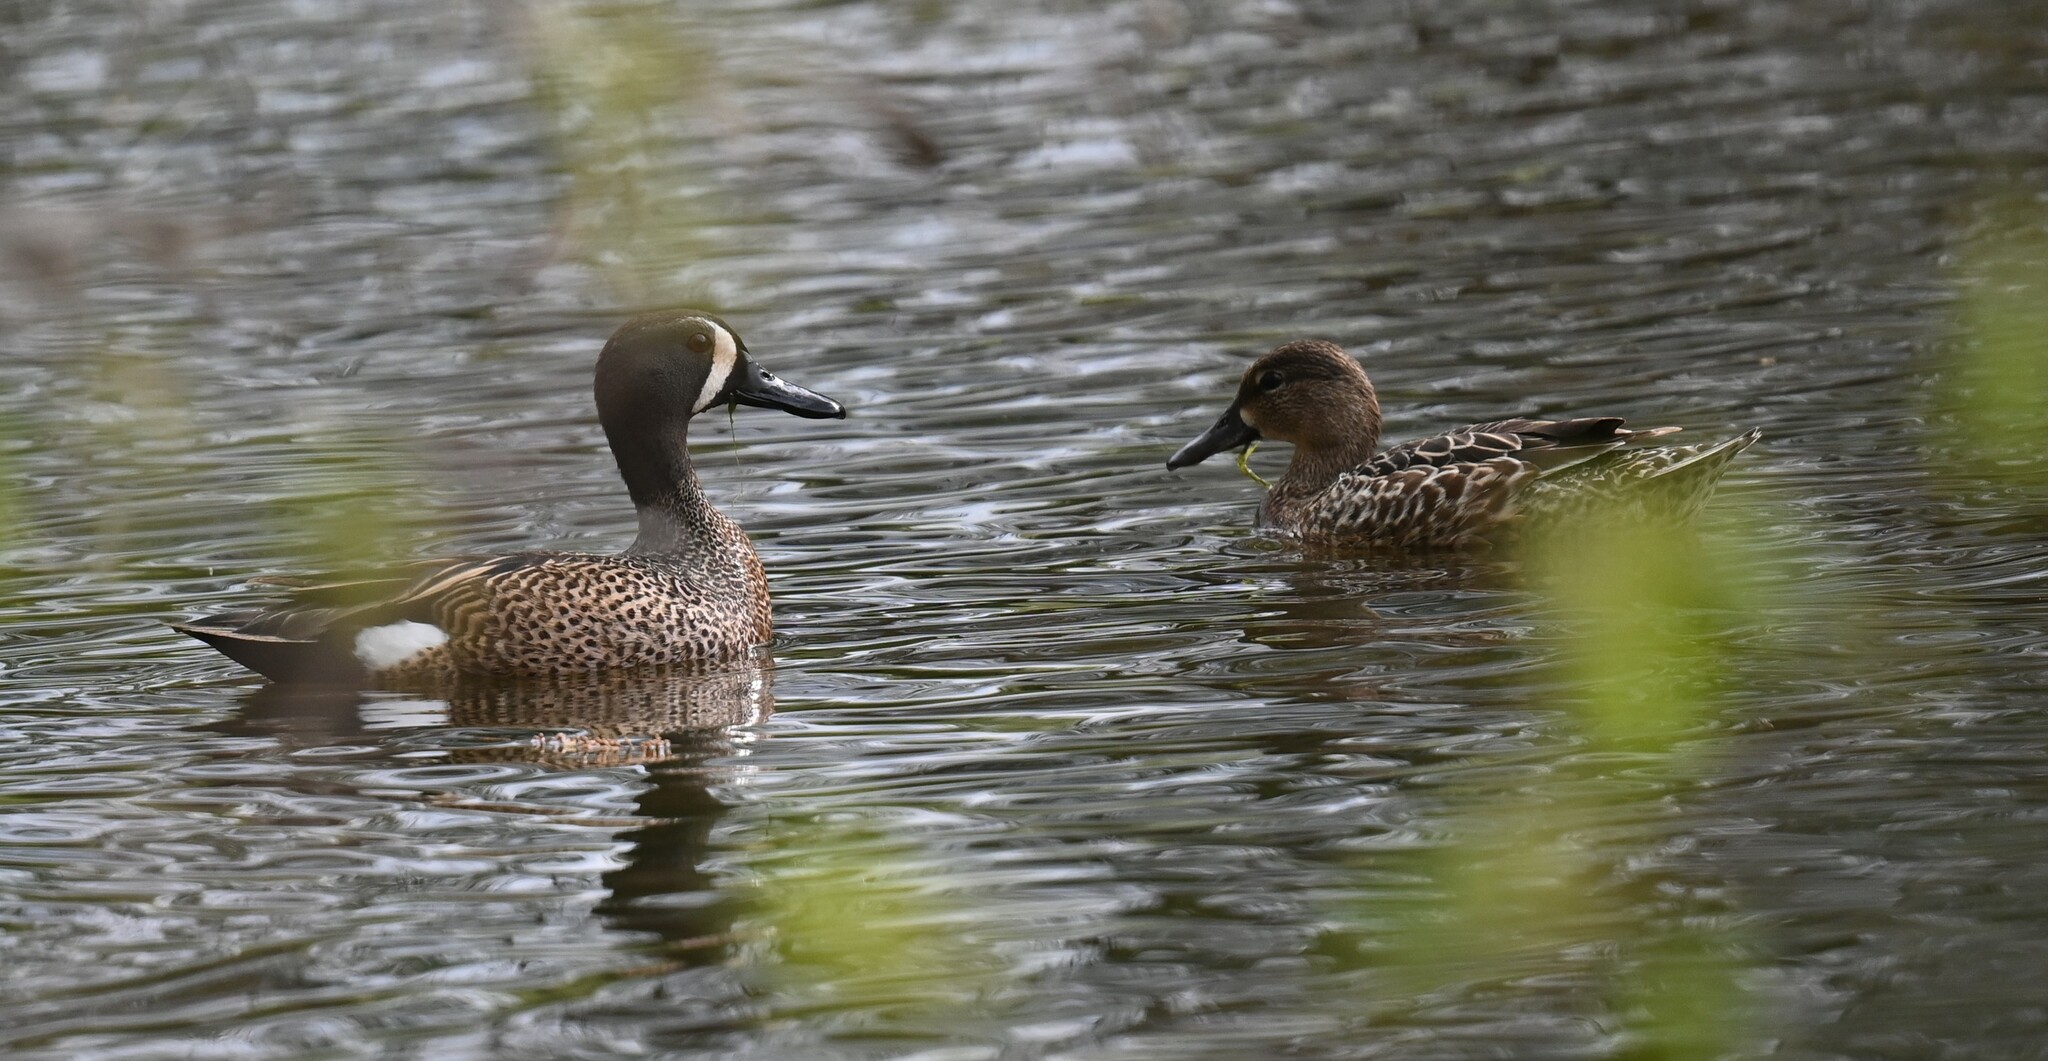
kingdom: Animalia
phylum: Chordata
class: Aves
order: Anseriformes
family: Anatidae
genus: Spatula
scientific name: Spatula discors
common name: Blue-winged teal
